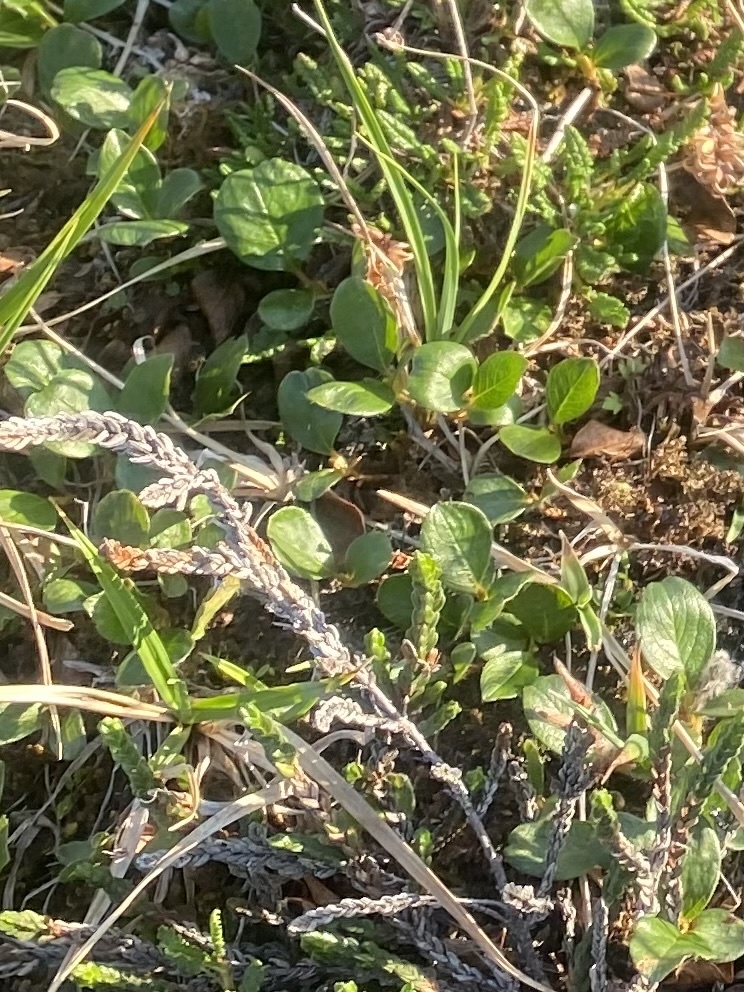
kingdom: Plantae
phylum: Tracheophyta
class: Magnoliopsida
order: Malpighiales
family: Salicaceae
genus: Salix
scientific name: Salix polaris
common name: Polar willow
